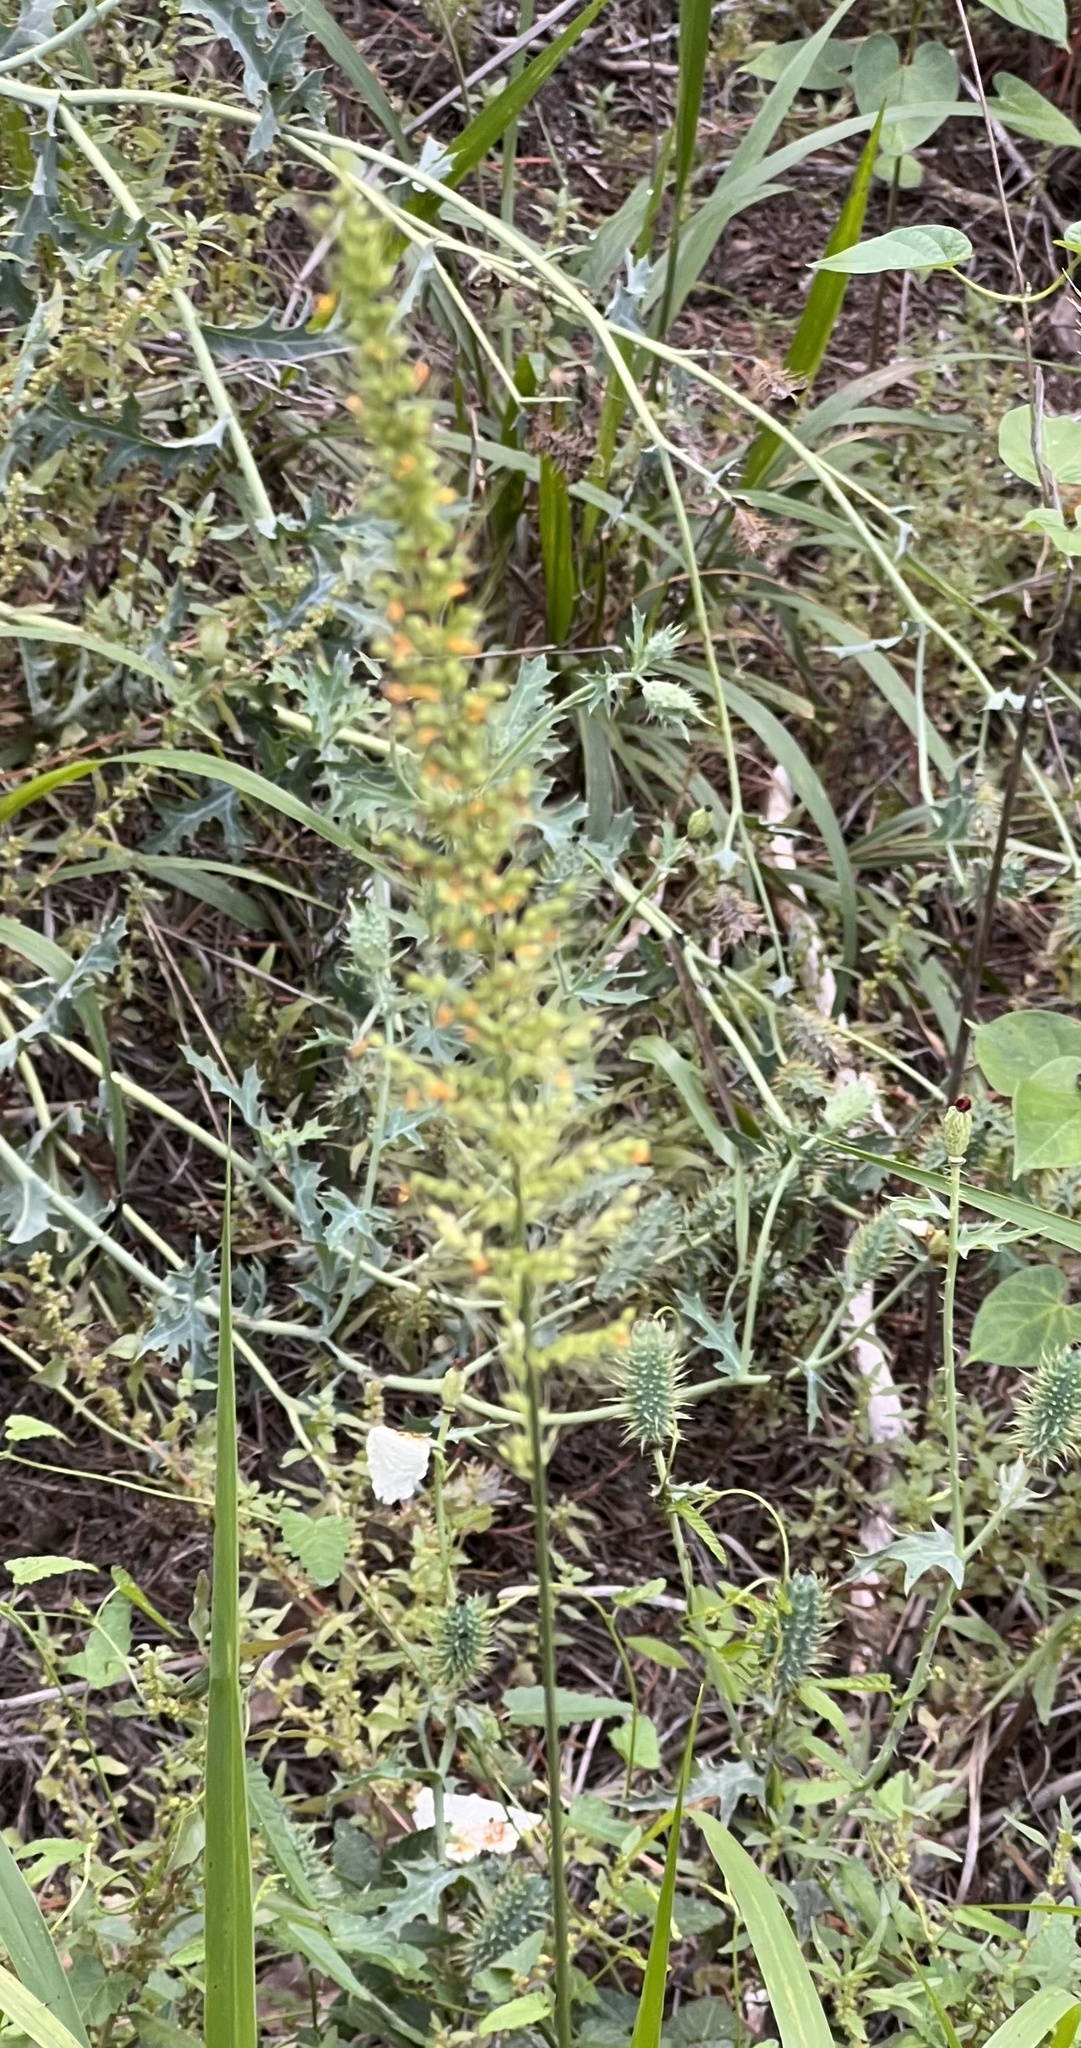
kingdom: Plantae
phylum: Tracheophyta
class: Liliopsida
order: Poales
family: Poaceae
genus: Setaria
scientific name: Setaria scheelei
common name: Southwestern bristle grass
